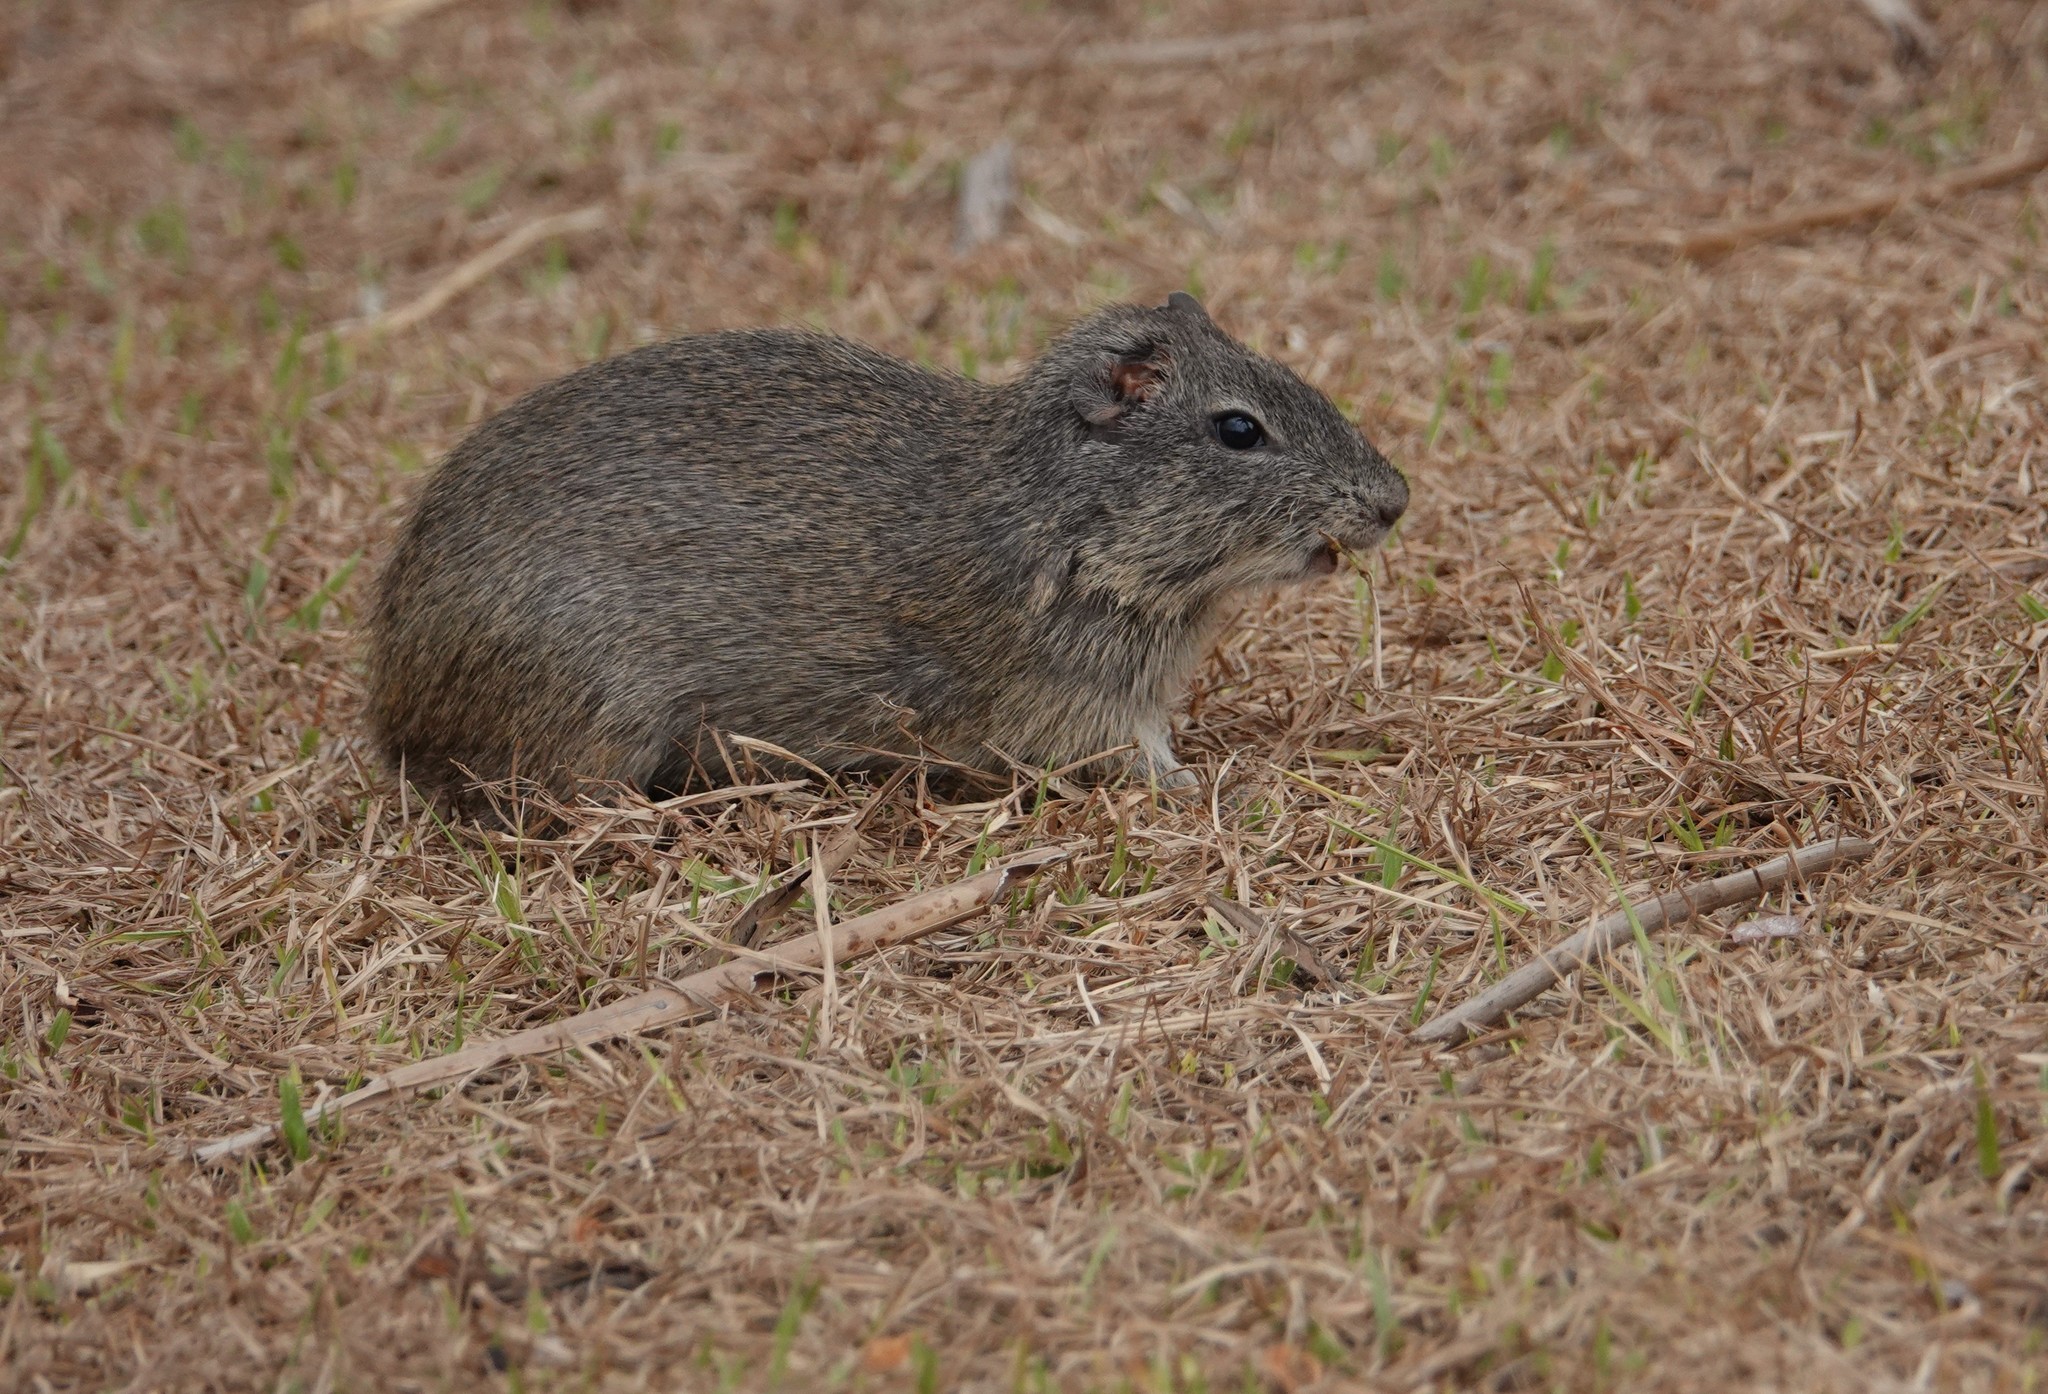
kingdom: Animalia
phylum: Chordata
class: Mammalia
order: Rodentia
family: Caviidae
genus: Cavia
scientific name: Cavia aperea
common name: Brazilian guinea pig
